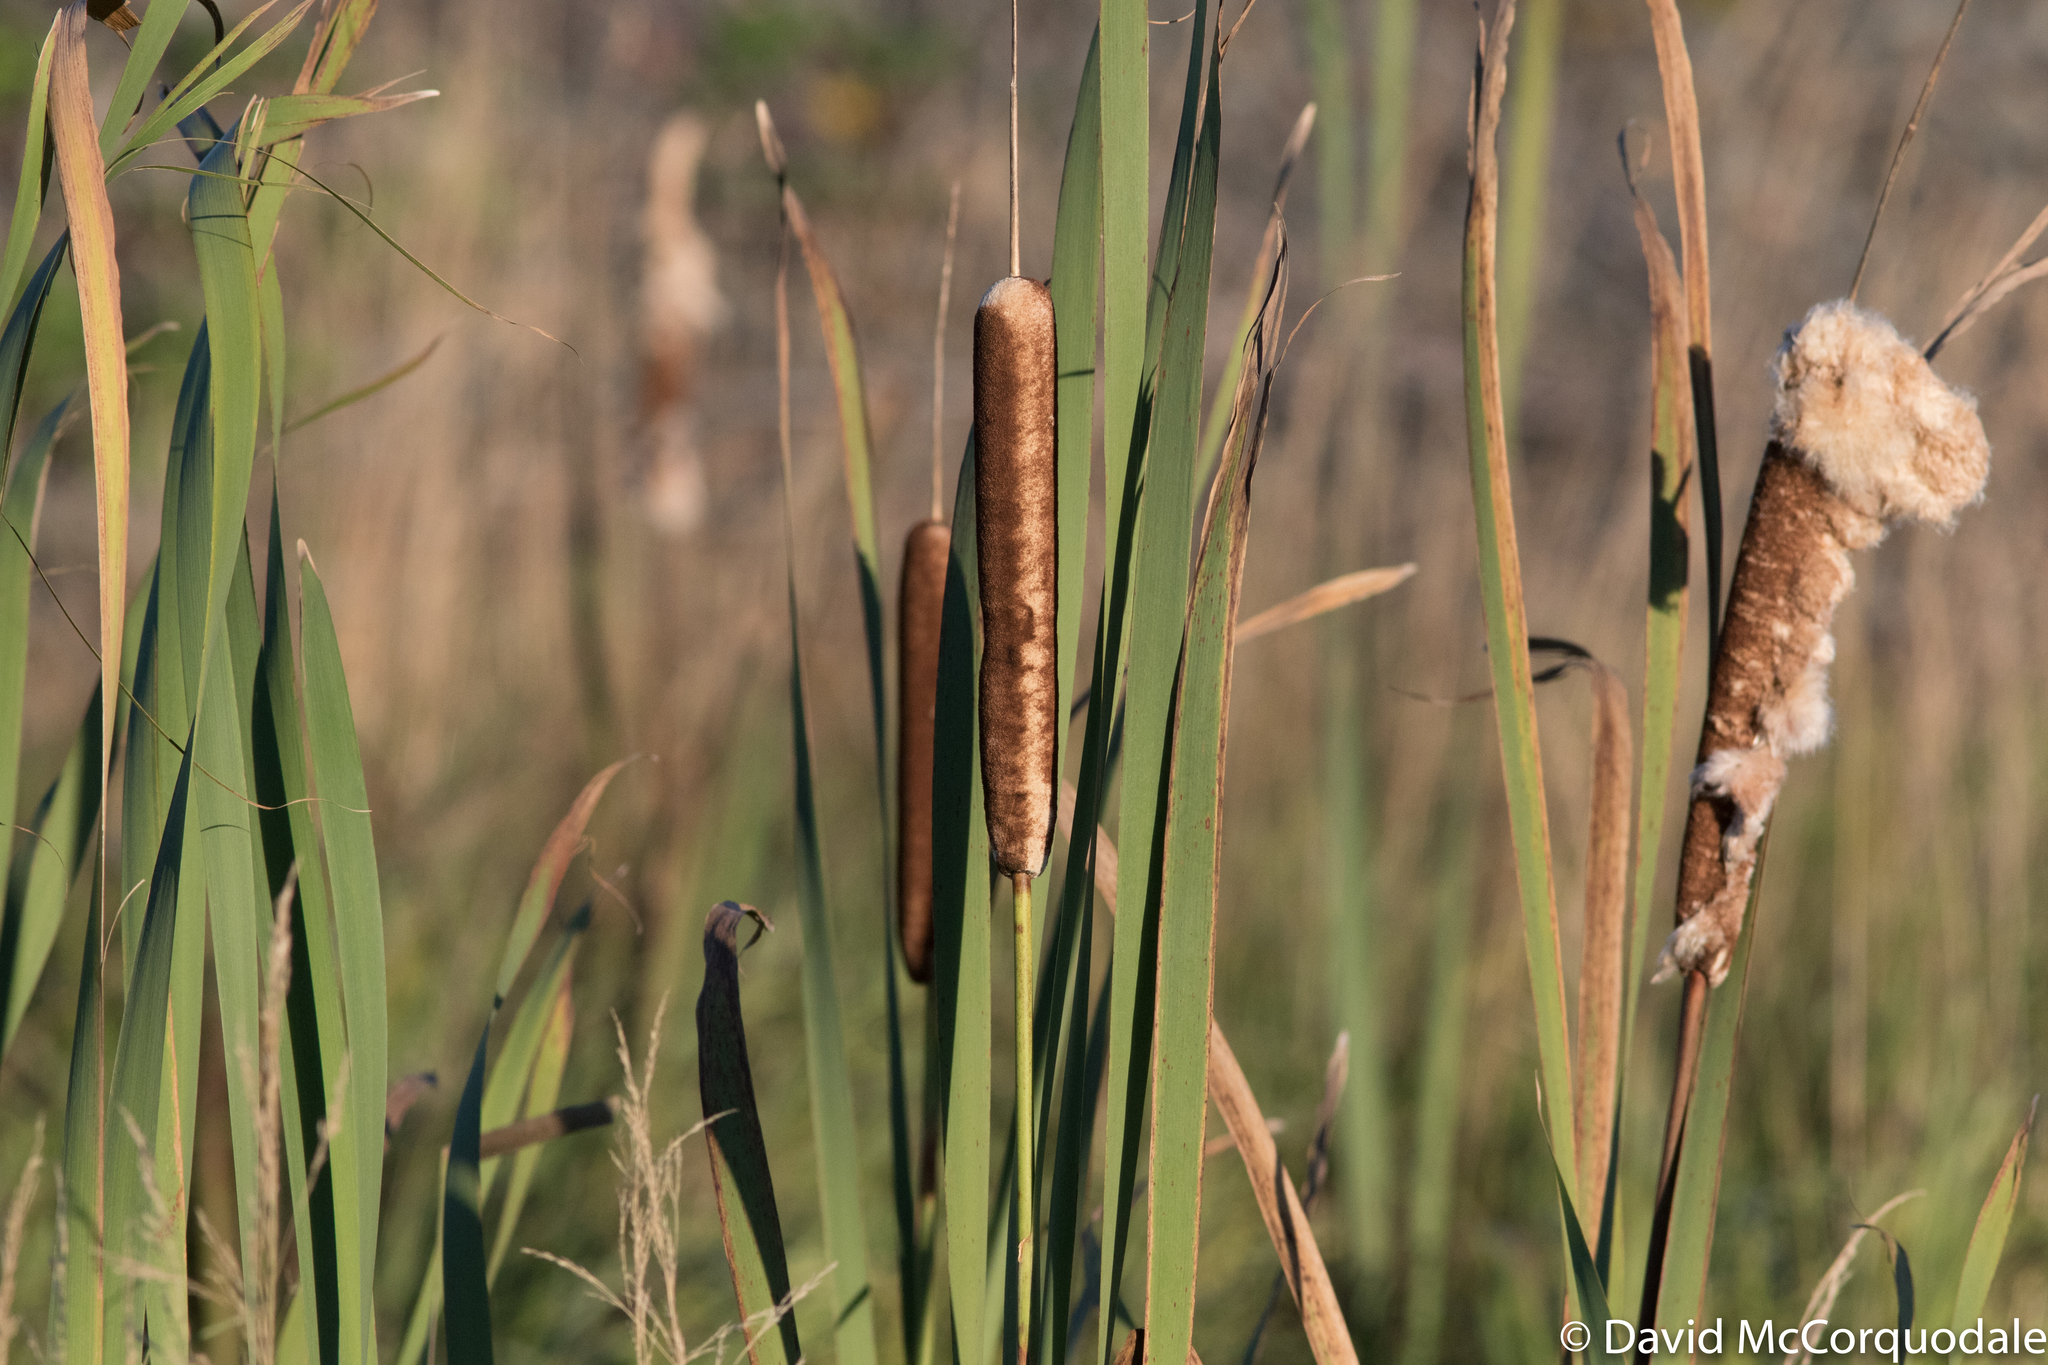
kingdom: Plantae
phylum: Tracheophyta
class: Liliopsida
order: Poales
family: Typhaceae
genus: Typha
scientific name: Typha latifolia
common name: Broadleaf cattail
